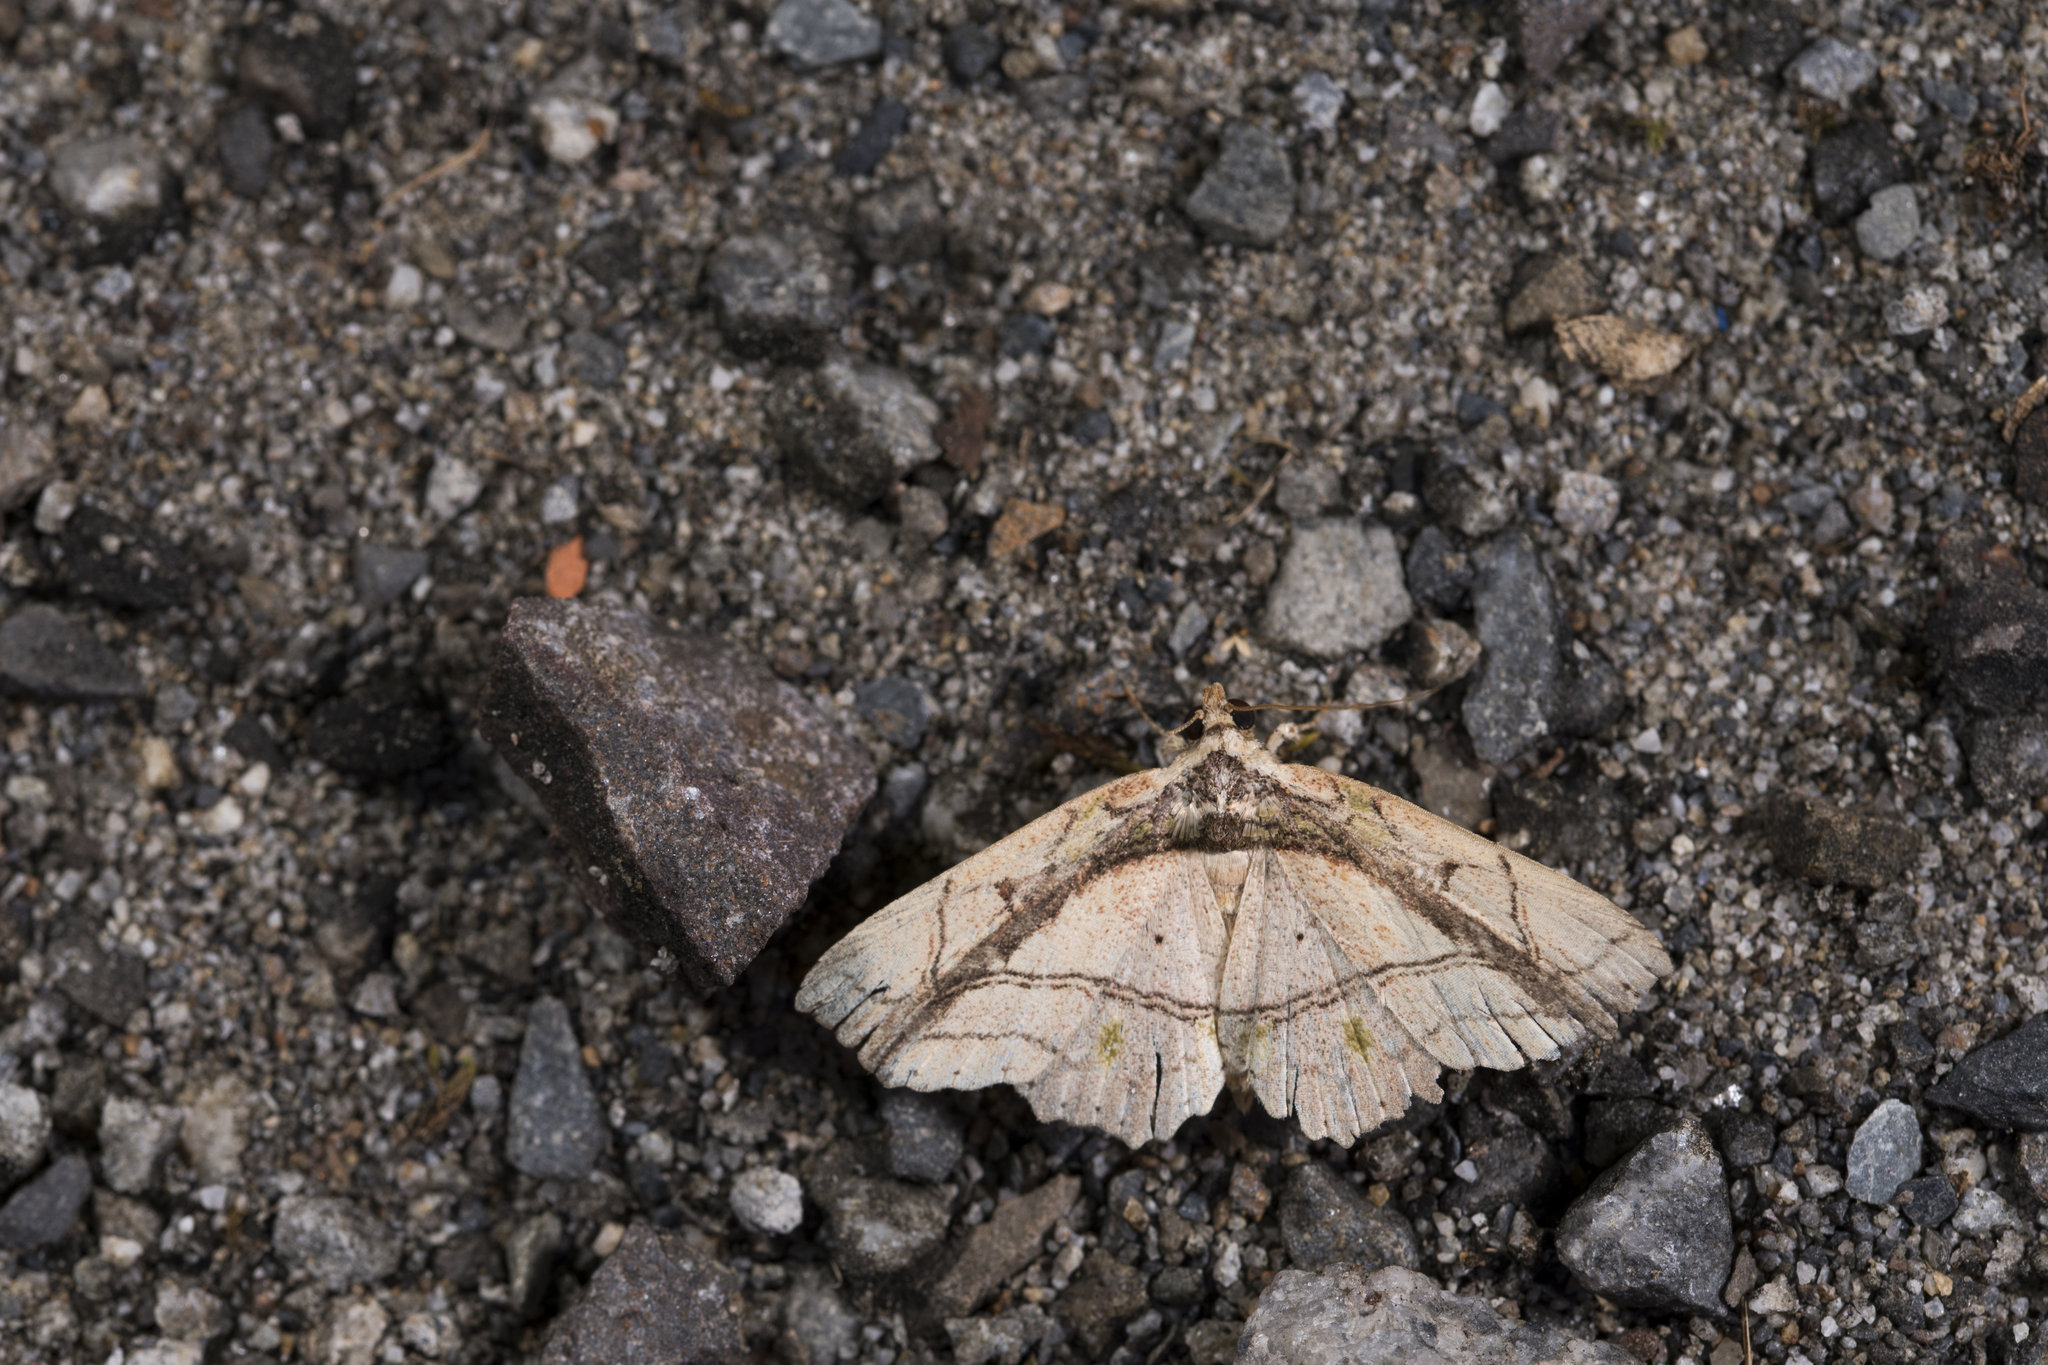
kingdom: Animalia
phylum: Arthropoda
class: Insecta
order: Lepidoptera
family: Erebidae
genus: Tamba
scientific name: Tamba lala
